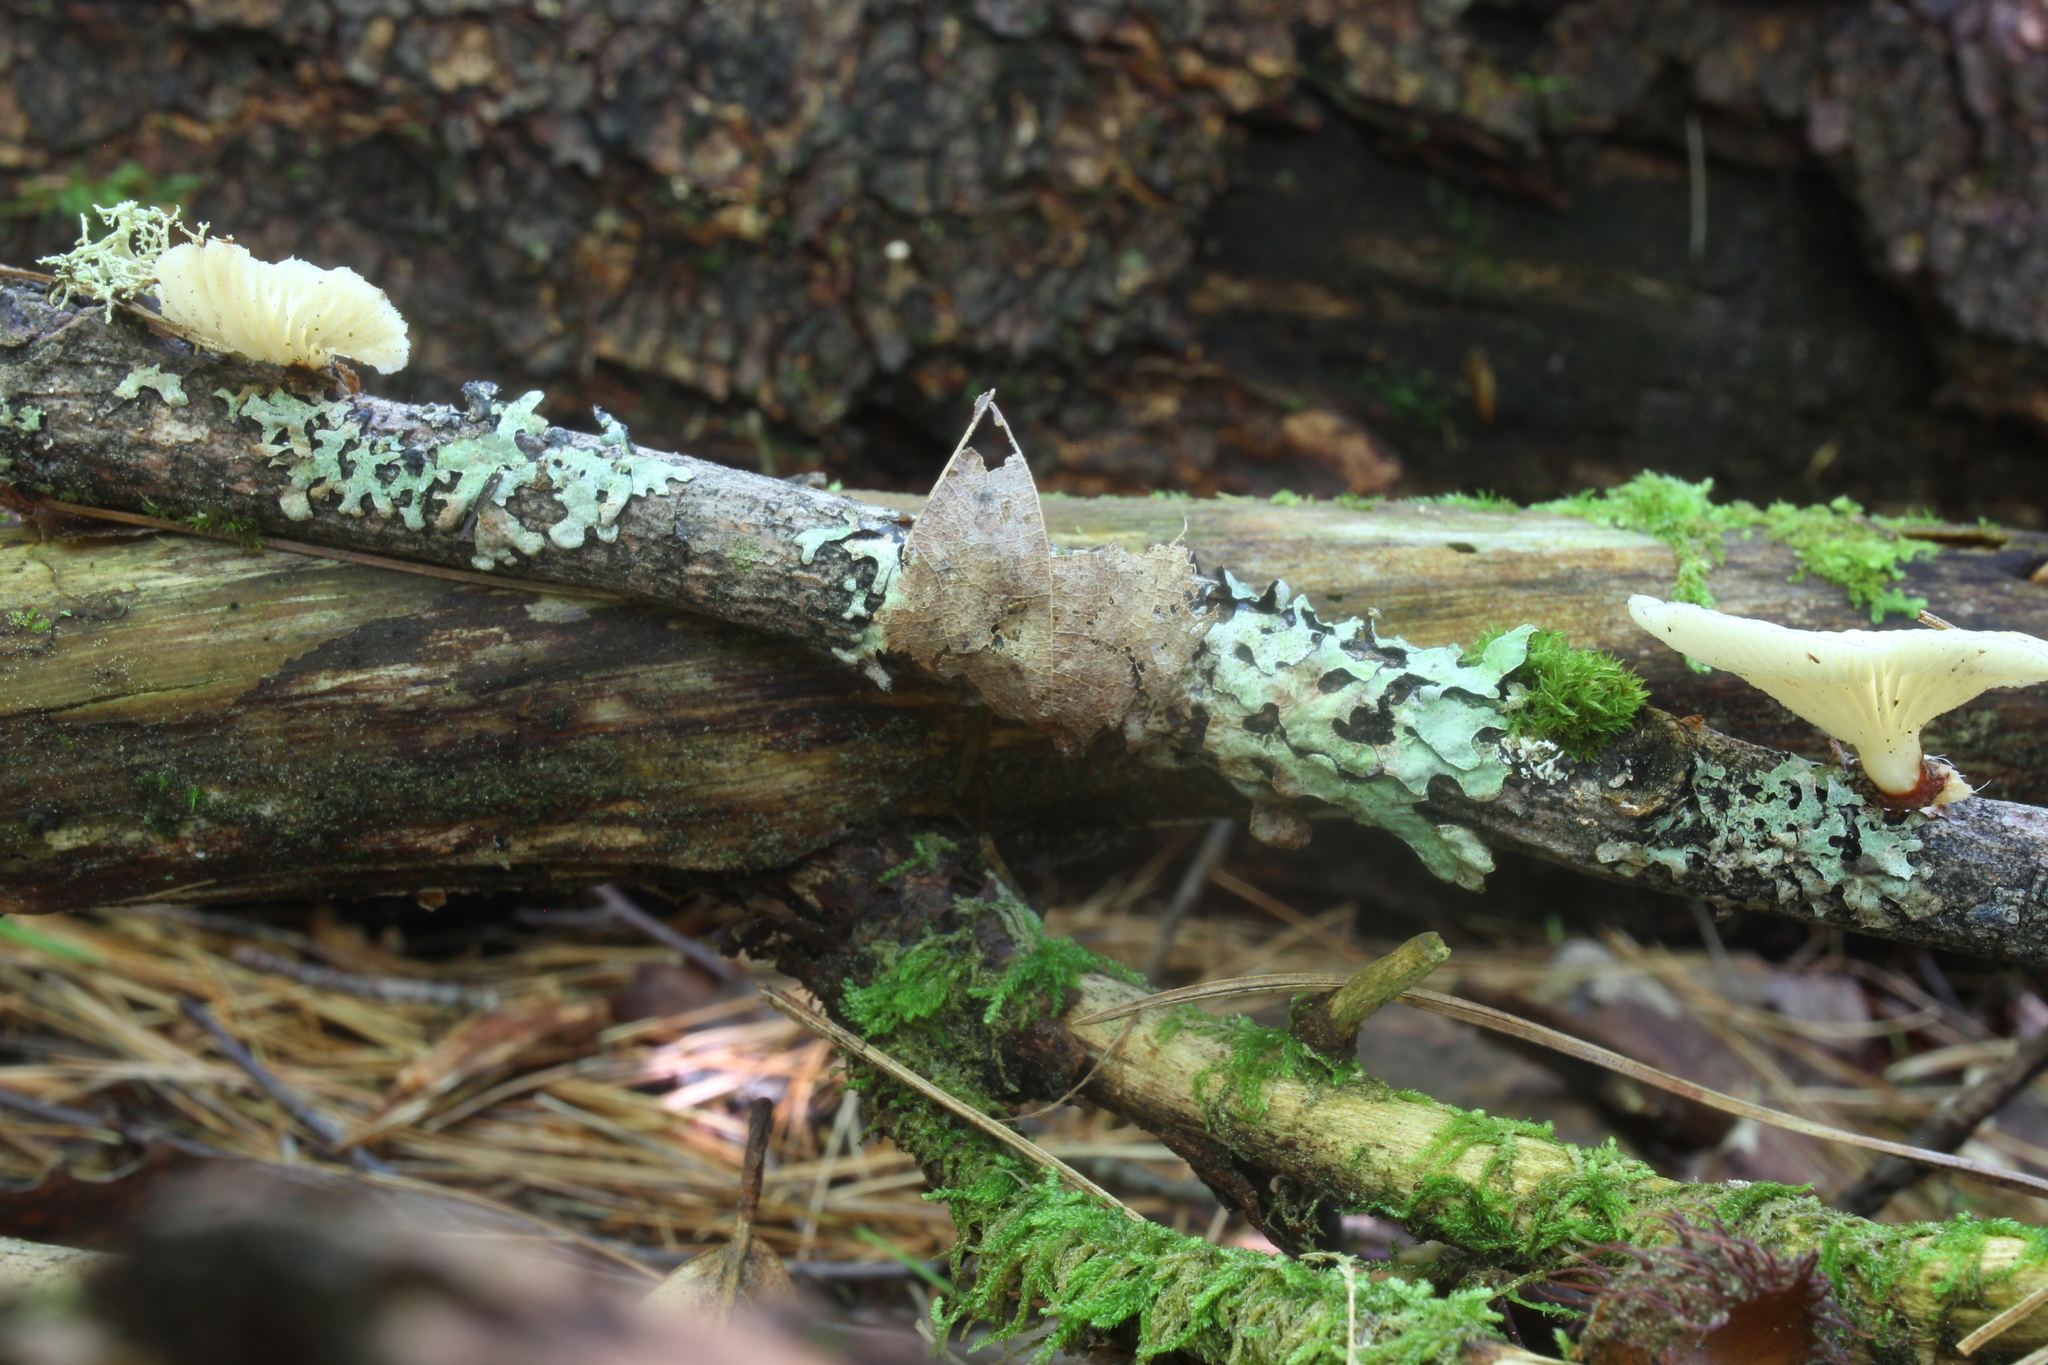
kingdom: Fungi
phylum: Basidiomycota
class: Agaricomycetes
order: Polyporales
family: Polyporaceae
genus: Neofavolus
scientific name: Neofavolus suavissimus
